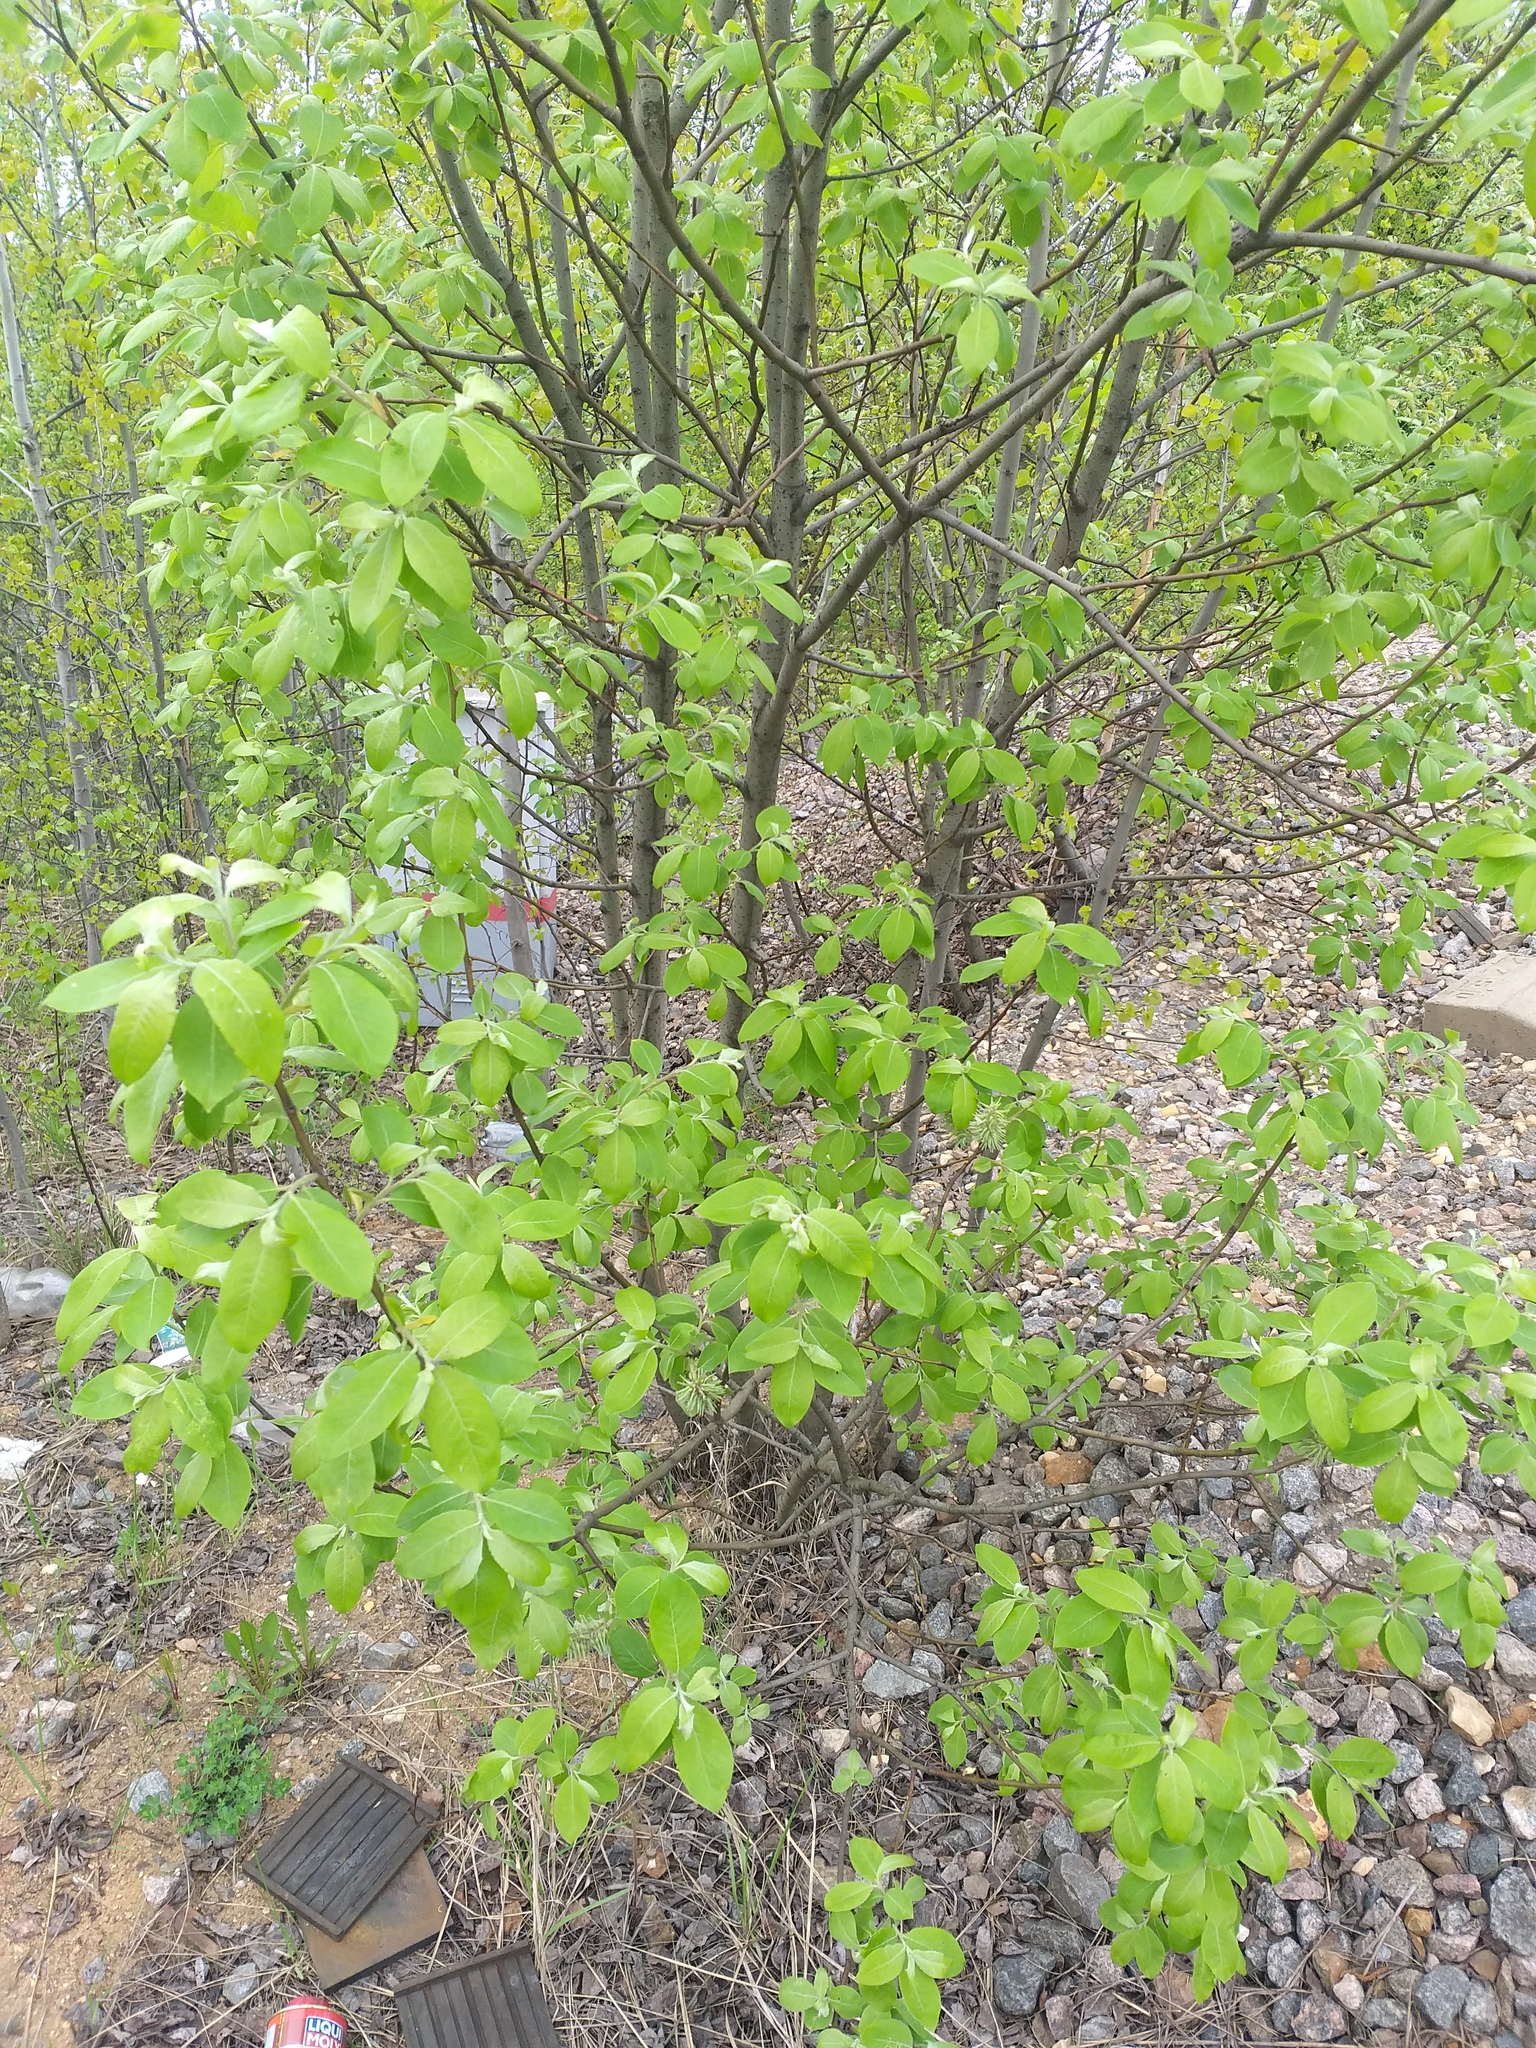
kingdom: Plantae
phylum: Tracheophyta
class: Magnoliopsida
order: Malpighiales
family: Salicaceae
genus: Salix
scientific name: Salix caprea
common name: Goat willow
